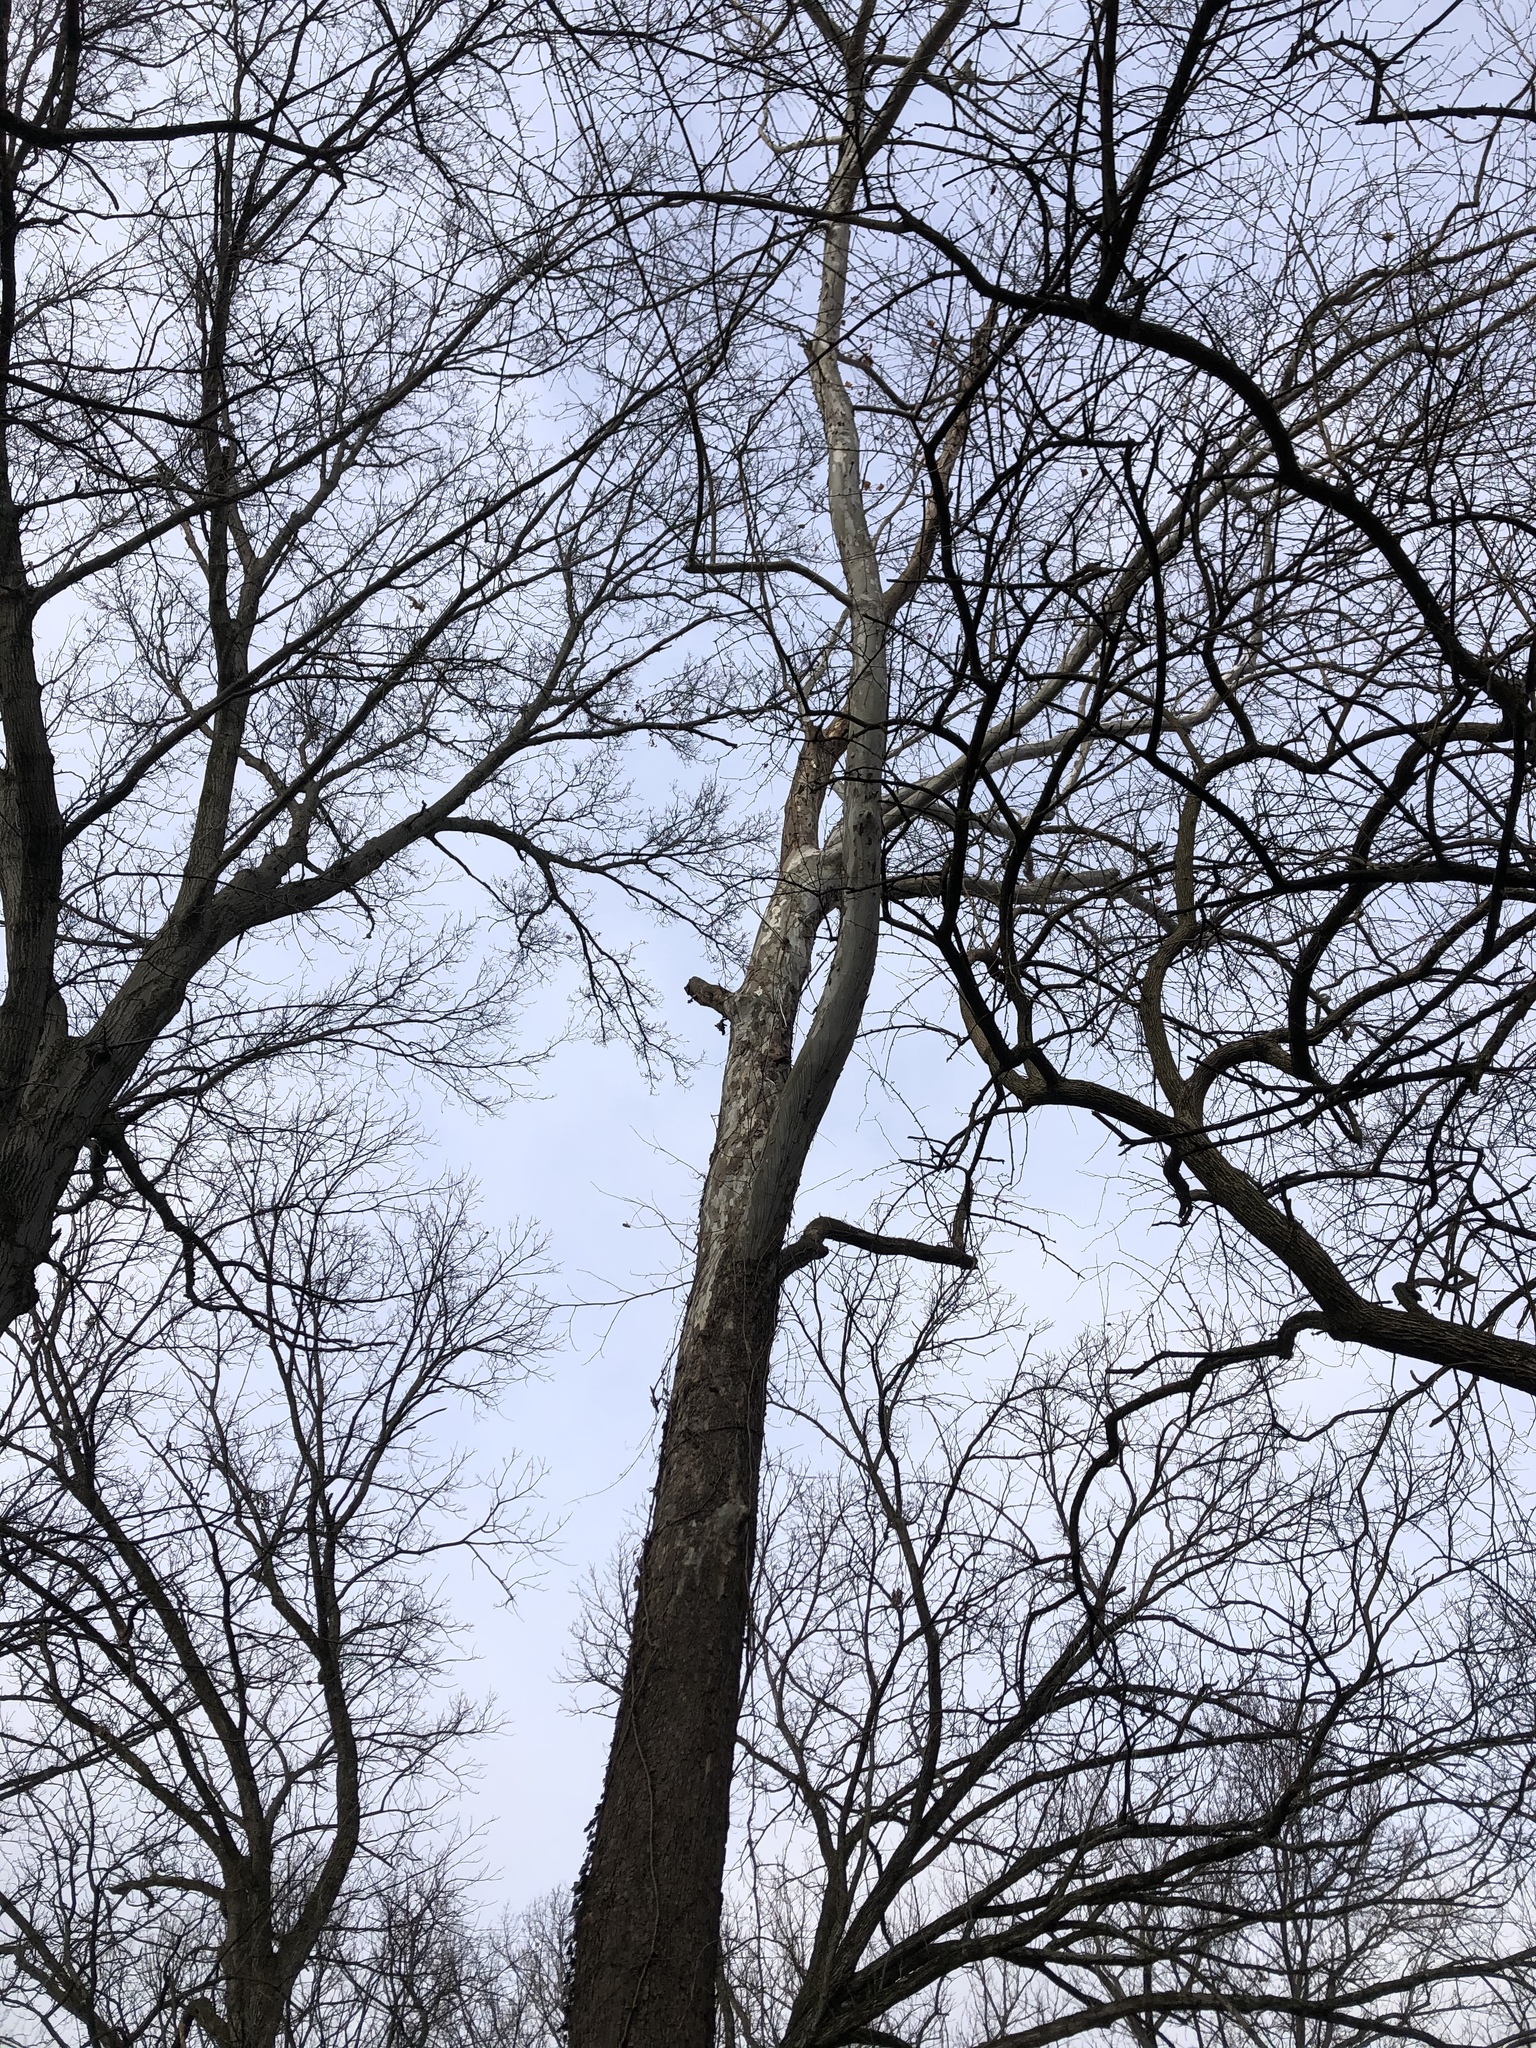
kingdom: Plantae
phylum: Tracheophyta
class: Magnoliopsida
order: Proteales
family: Platanaceae
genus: Platanus
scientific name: Platanus occidentalis
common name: American sycamore
